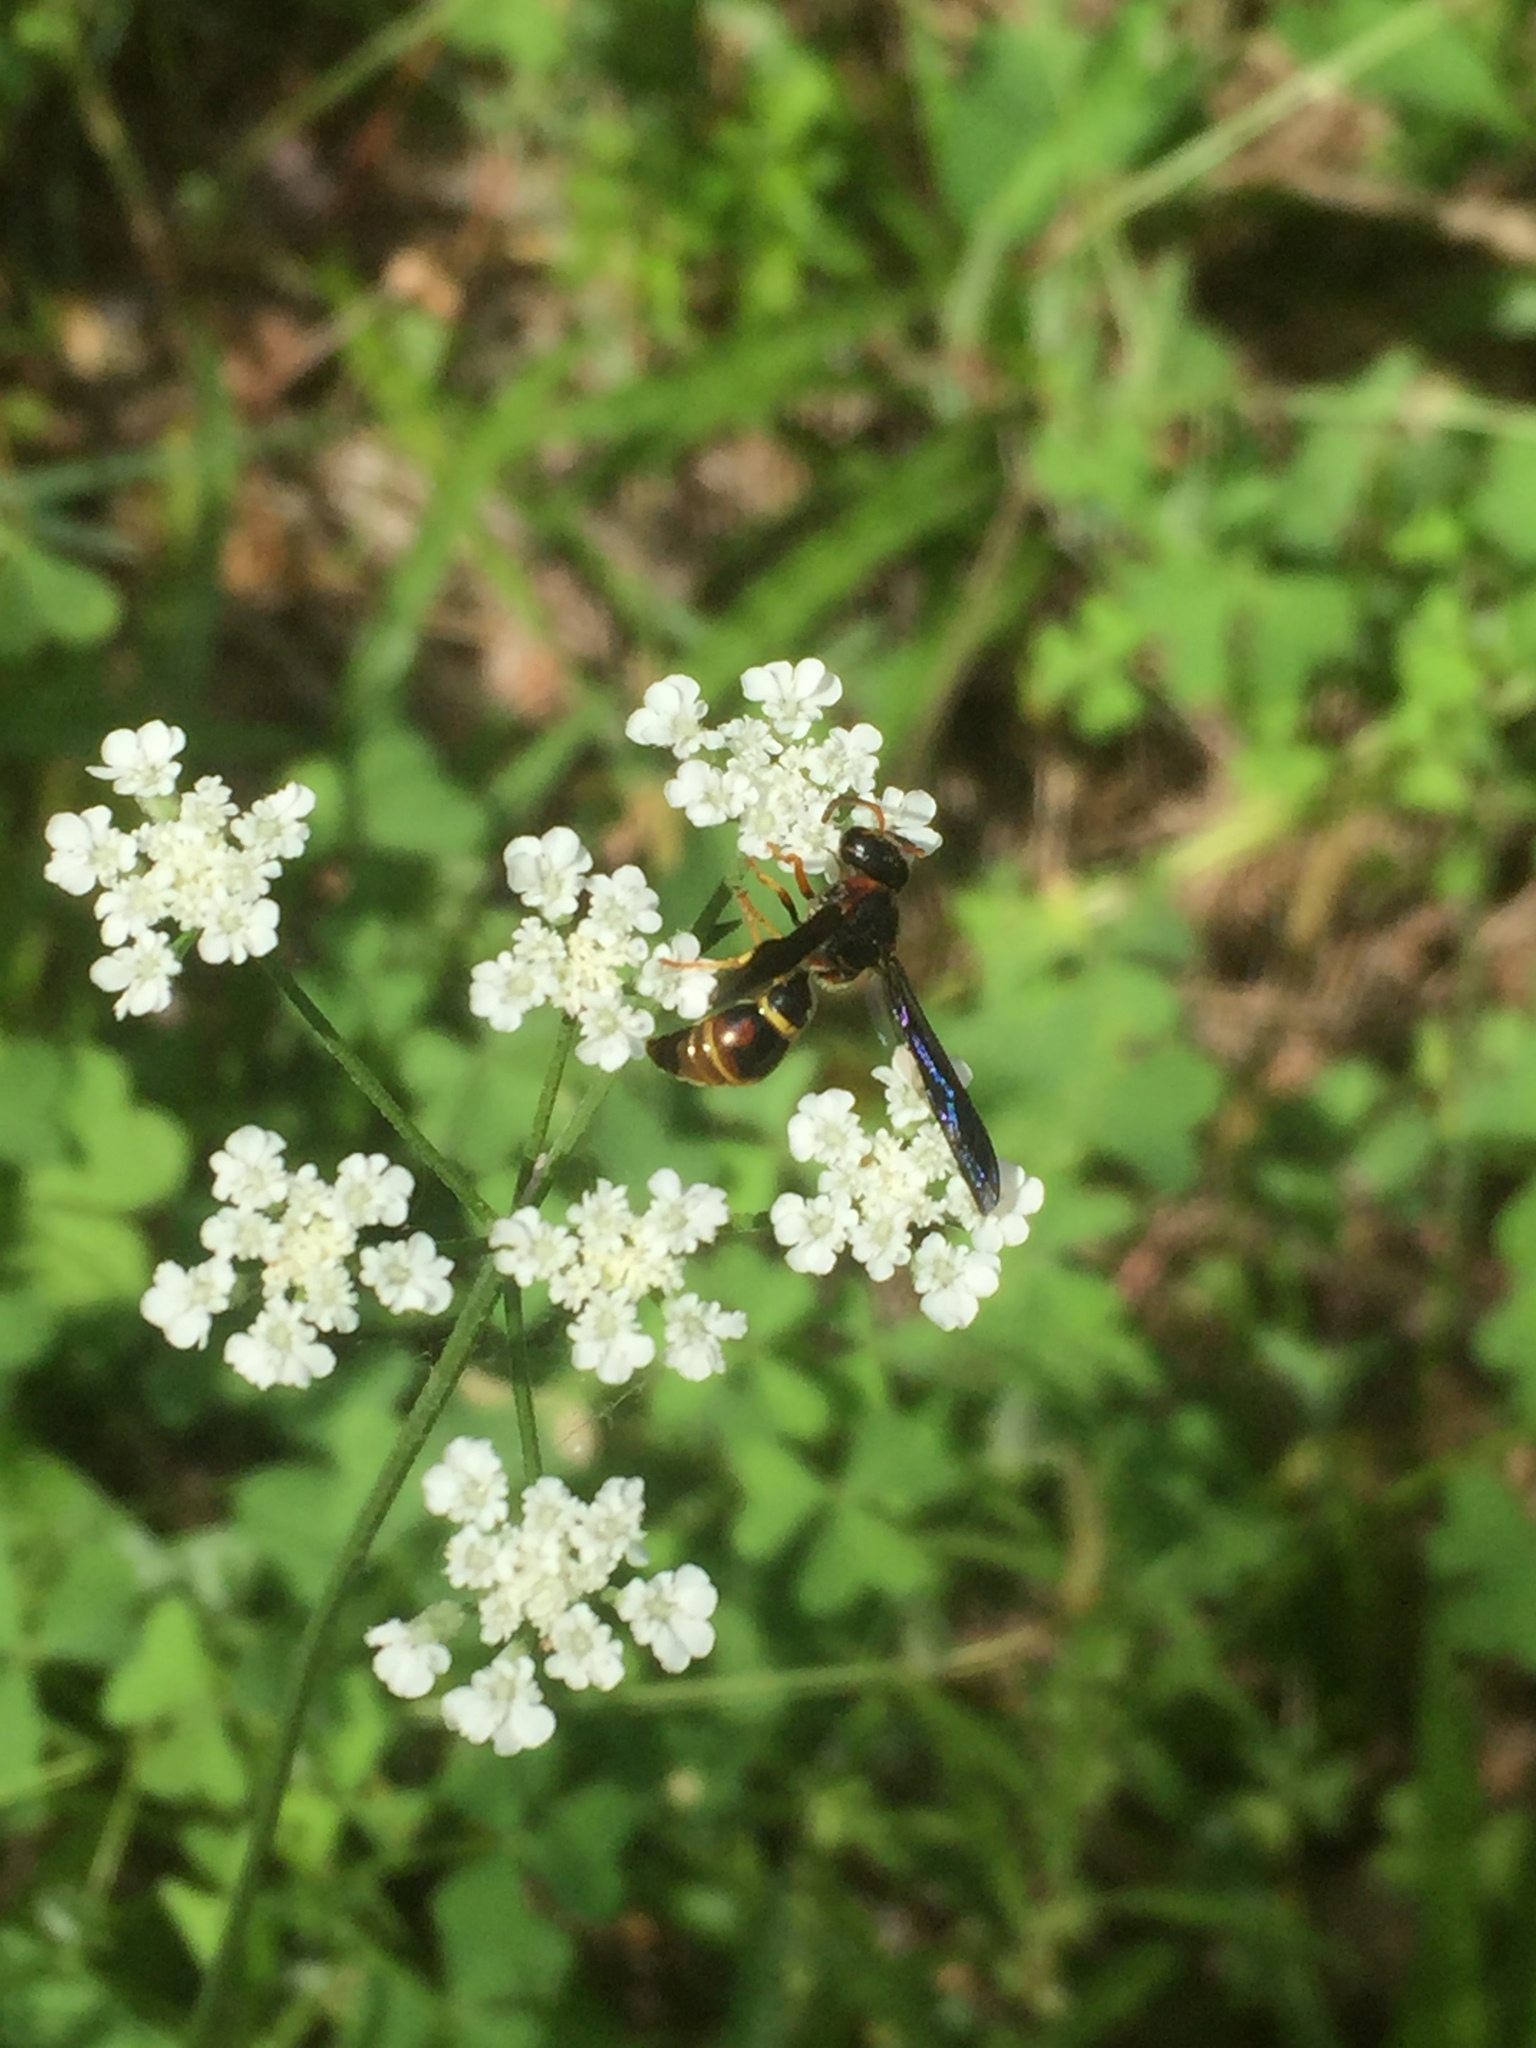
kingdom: Animalia
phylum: Arthropoda
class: Insecta
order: Hymenoptera
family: Eumenidae
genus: Parazumia
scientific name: Parazumia tolteca
